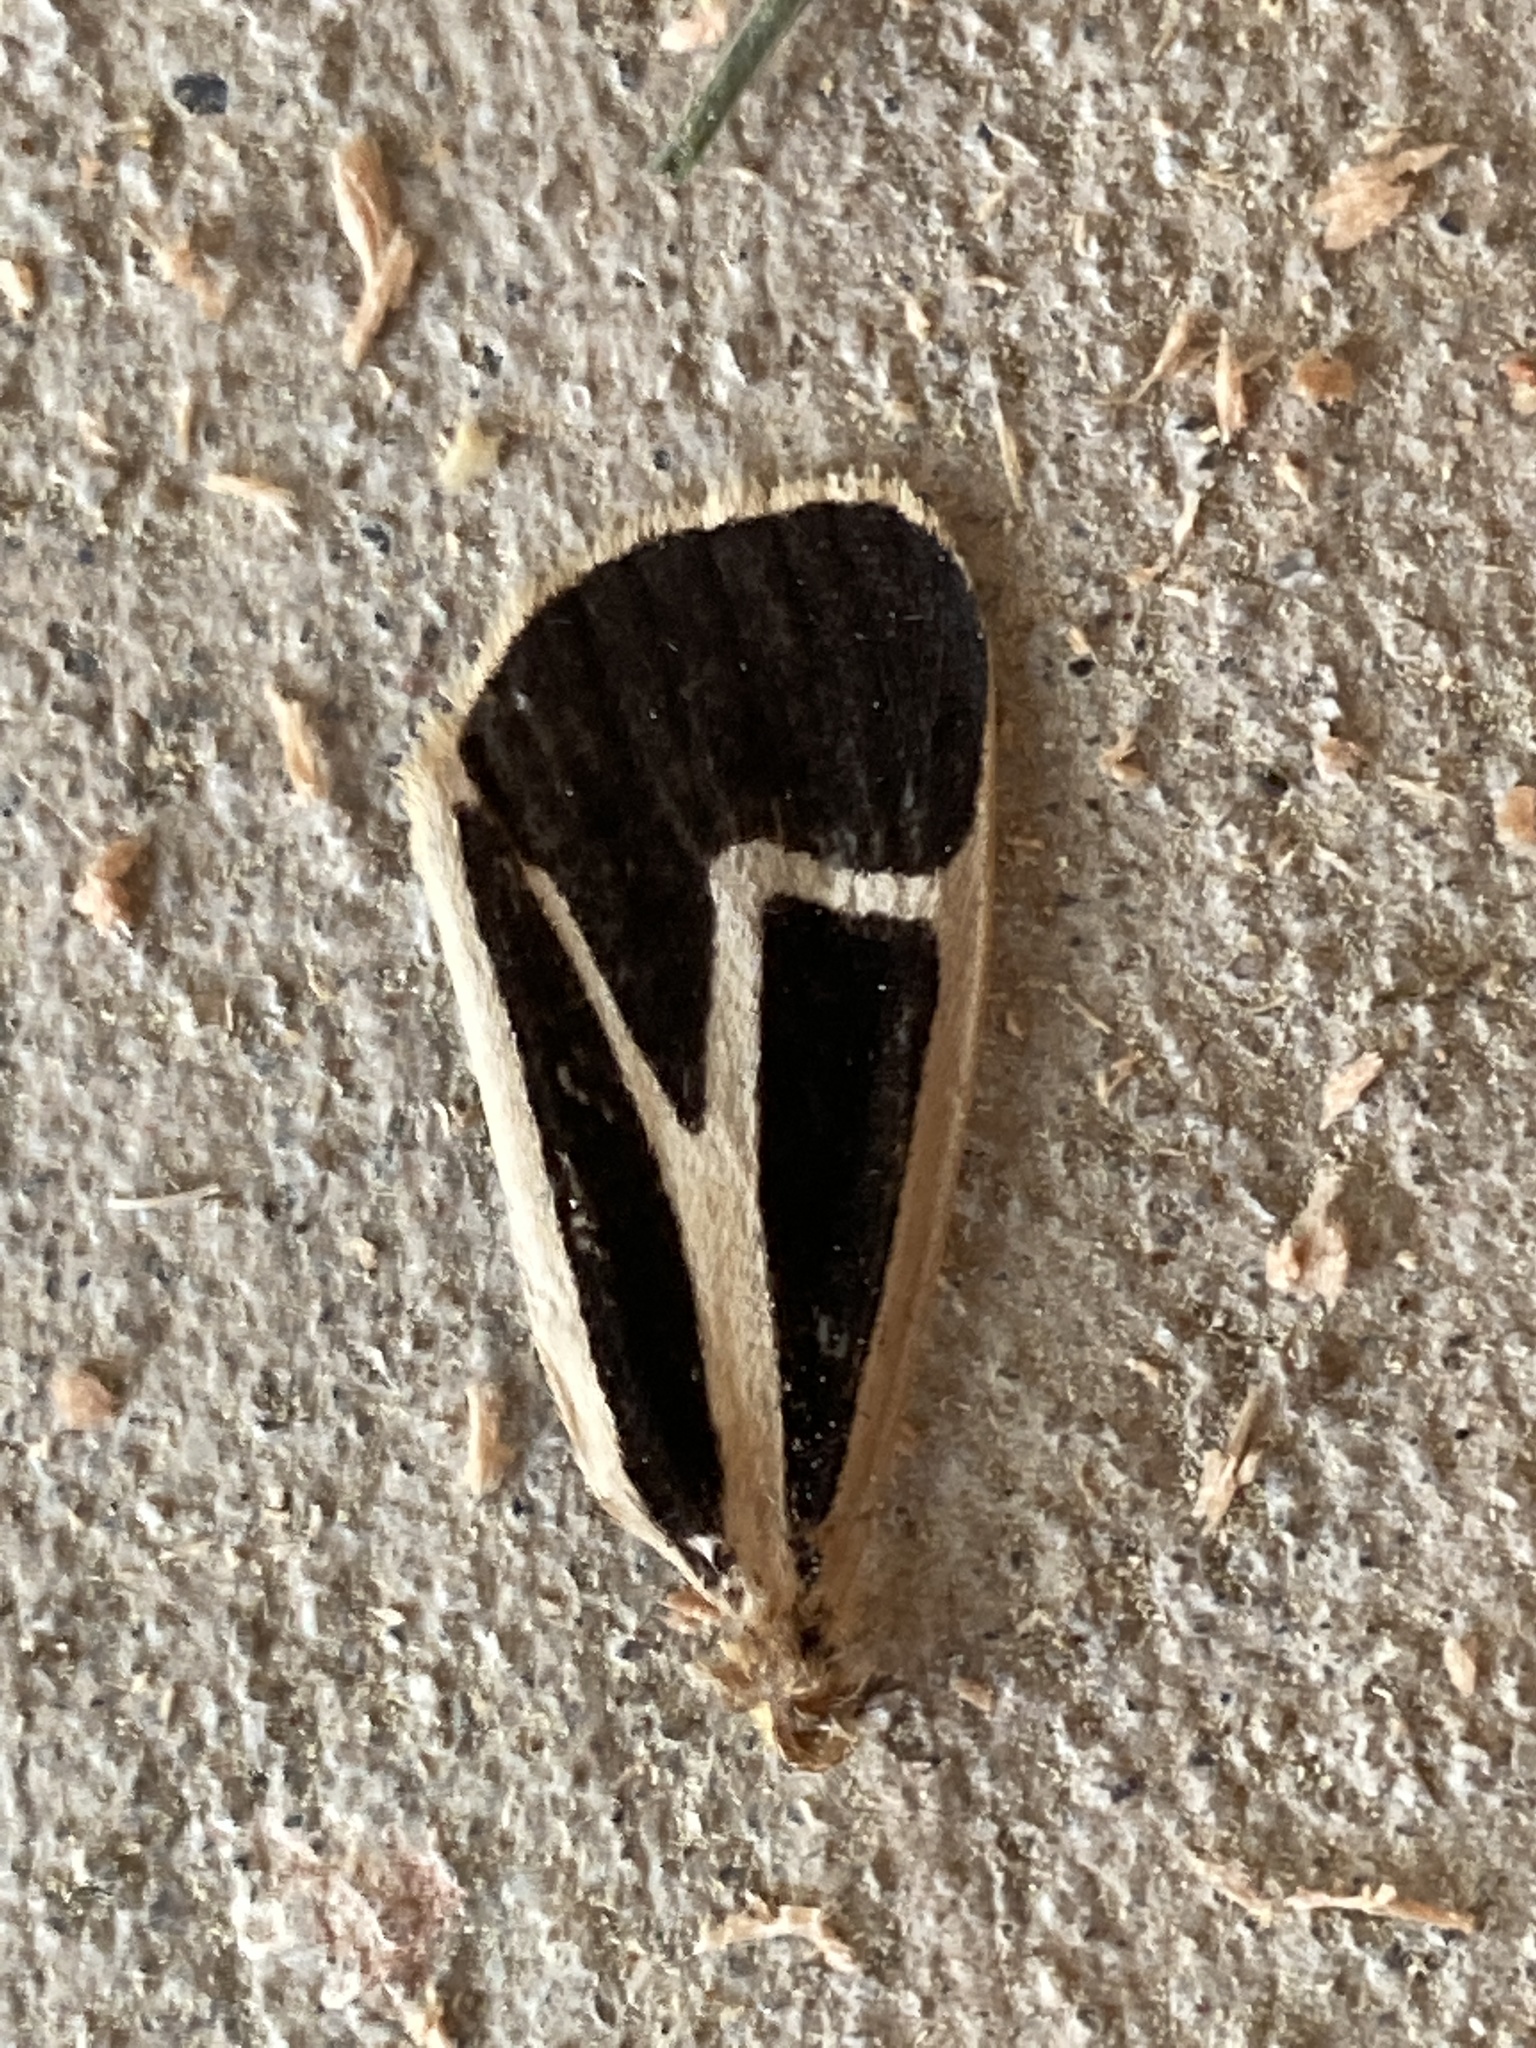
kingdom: Animalia
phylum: Arthropoda
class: Insecta
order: Lepidoptera
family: Erebidae
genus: Apantesis
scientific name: Apantesis vittata
